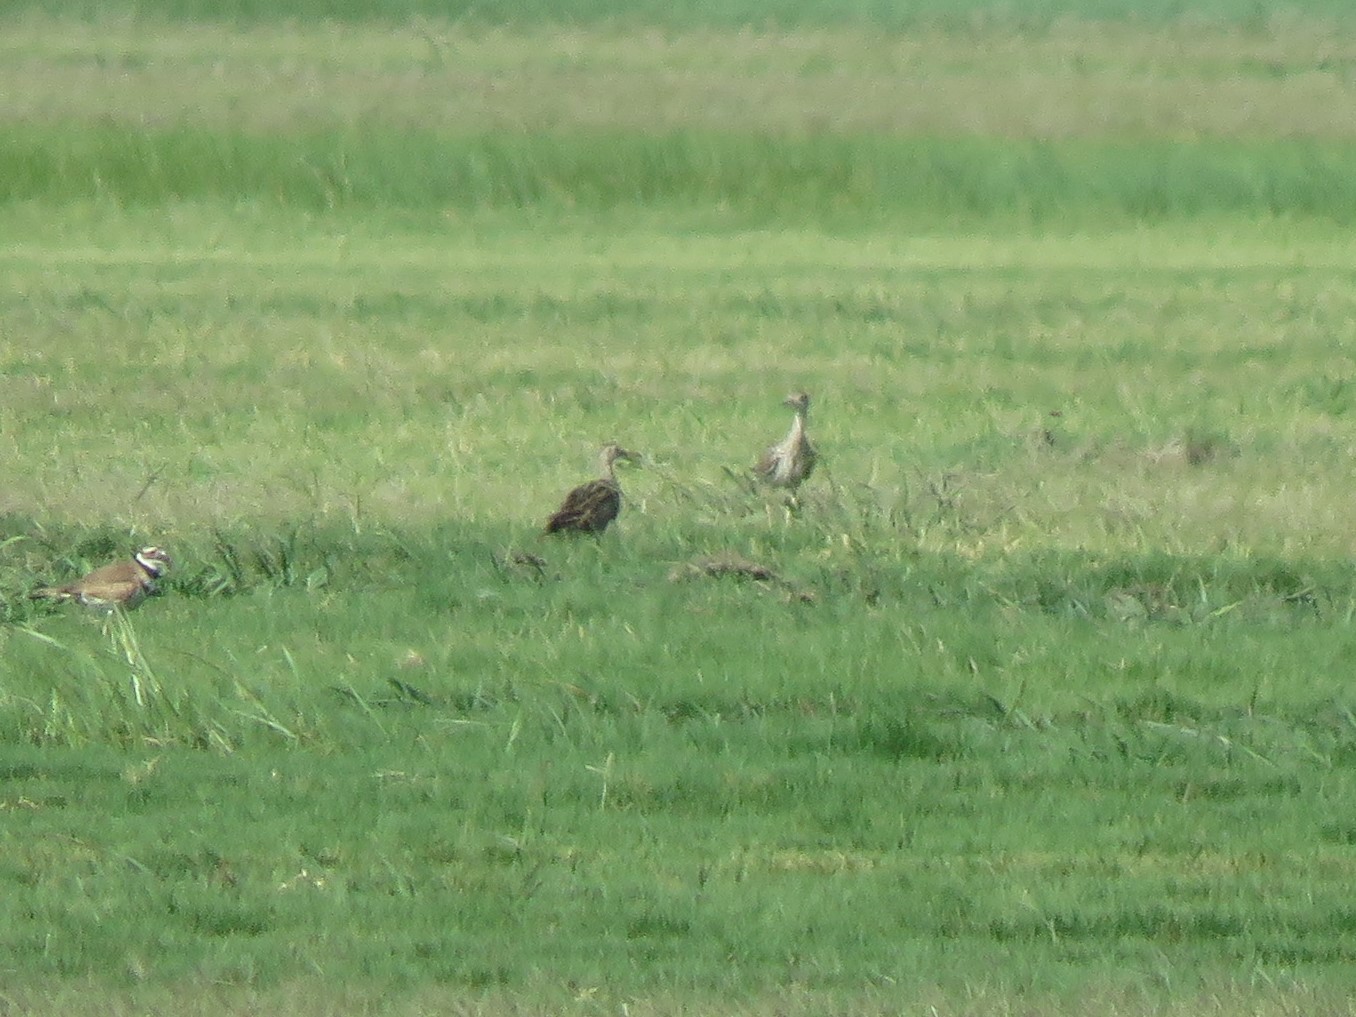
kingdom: Animalia
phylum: Chordata
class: Aves
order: Charadriiformes
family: Scolopacidae
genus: Bartramia
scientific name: Bartramia longicauda
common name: Upland sandpiper
